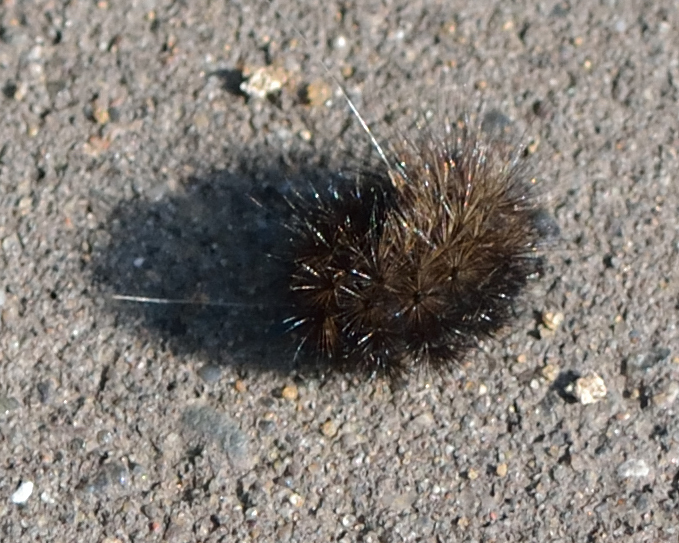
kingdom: Animalia
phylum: Arthropoda
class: Insecta
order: Lepidoptera
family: Erebidae
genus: Phragmatobia
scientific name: Phragmatobia fuliginosa
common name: Ruby tiger
